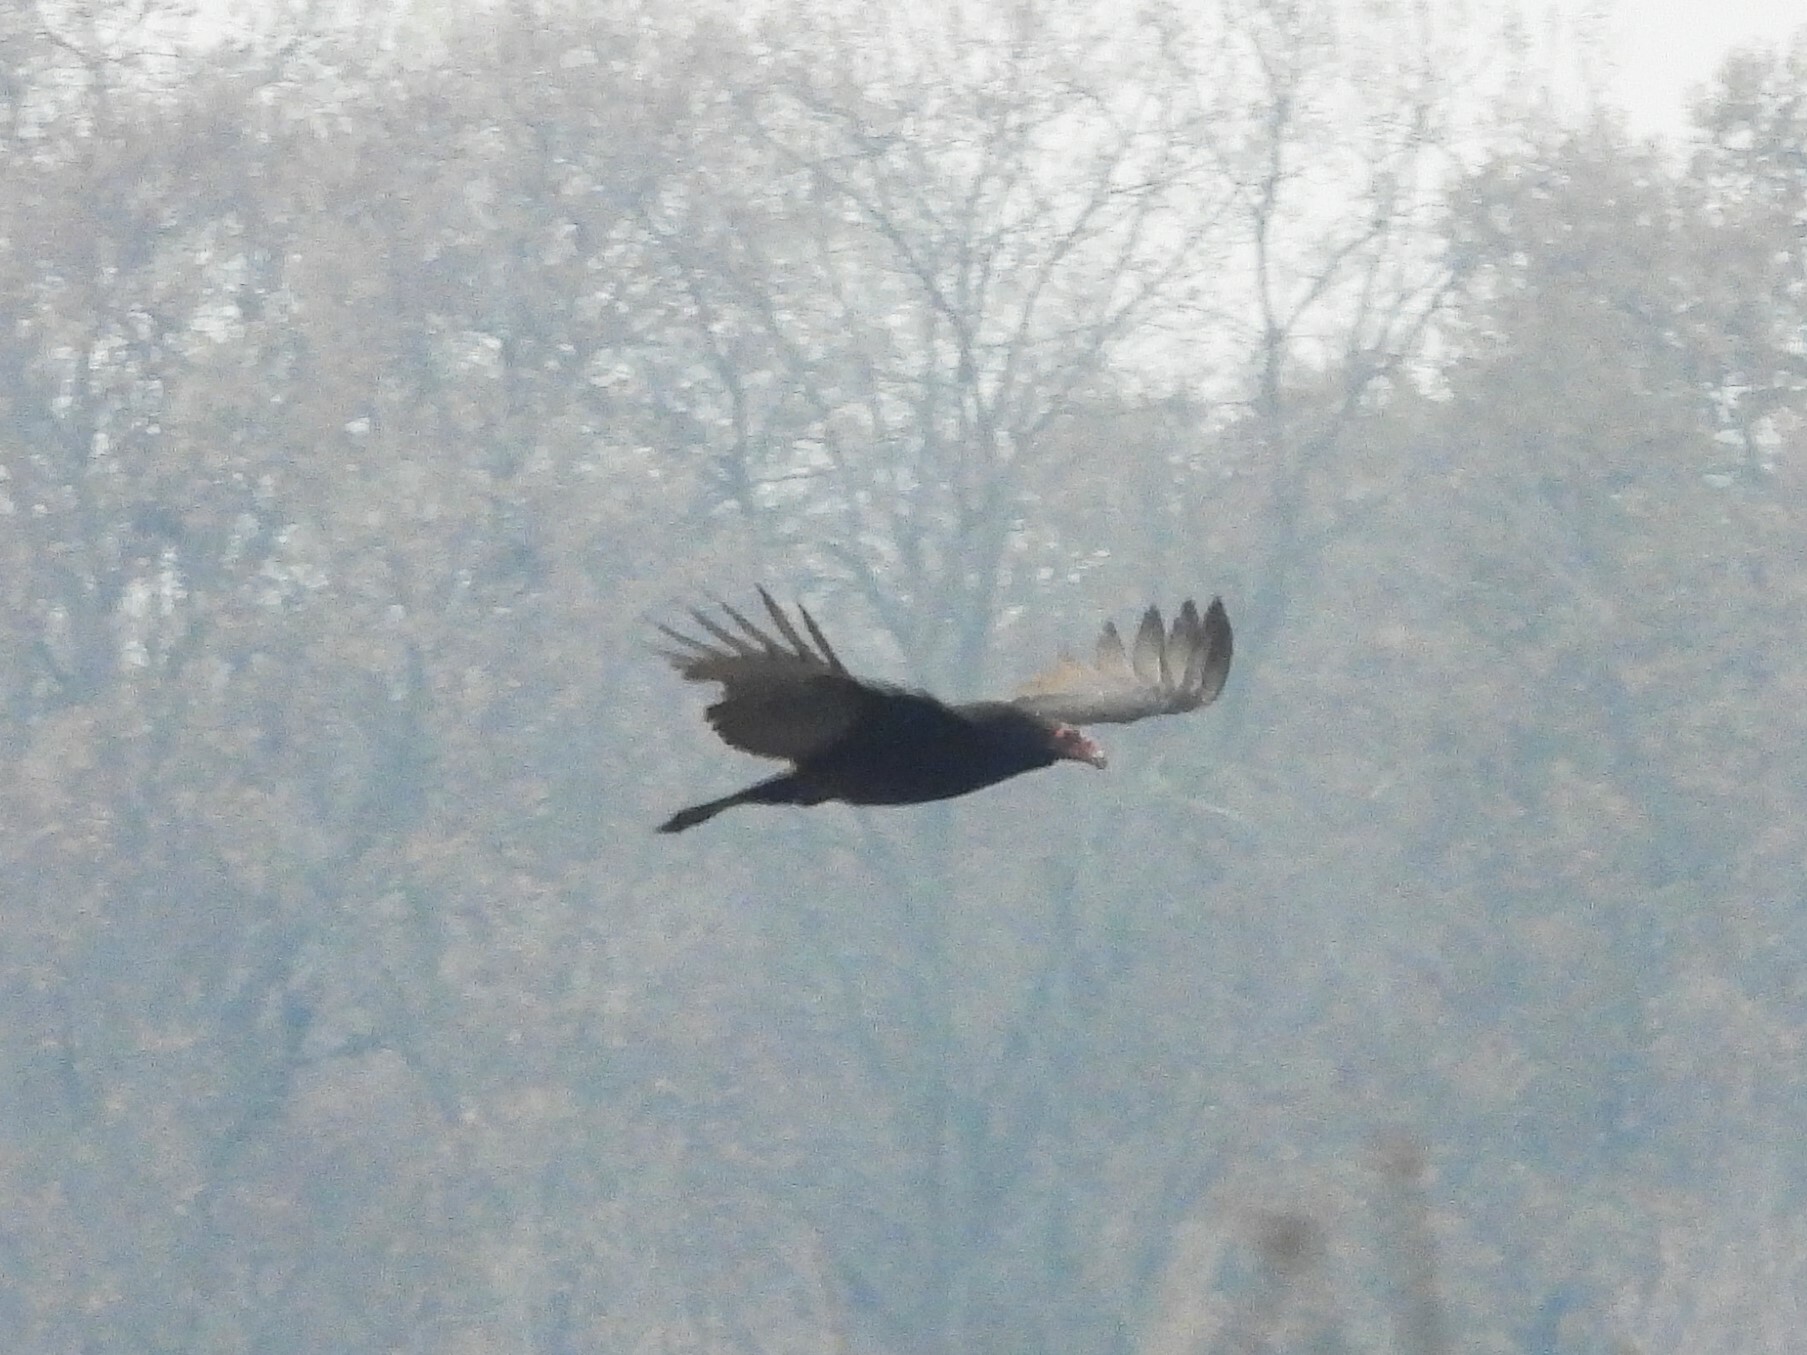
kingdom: Animalia
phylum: Chordata
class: Aves
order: Accipitriformes
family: Cathartidae
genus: Cathartes
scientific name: Cathartes aura
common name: Turkey vulture
